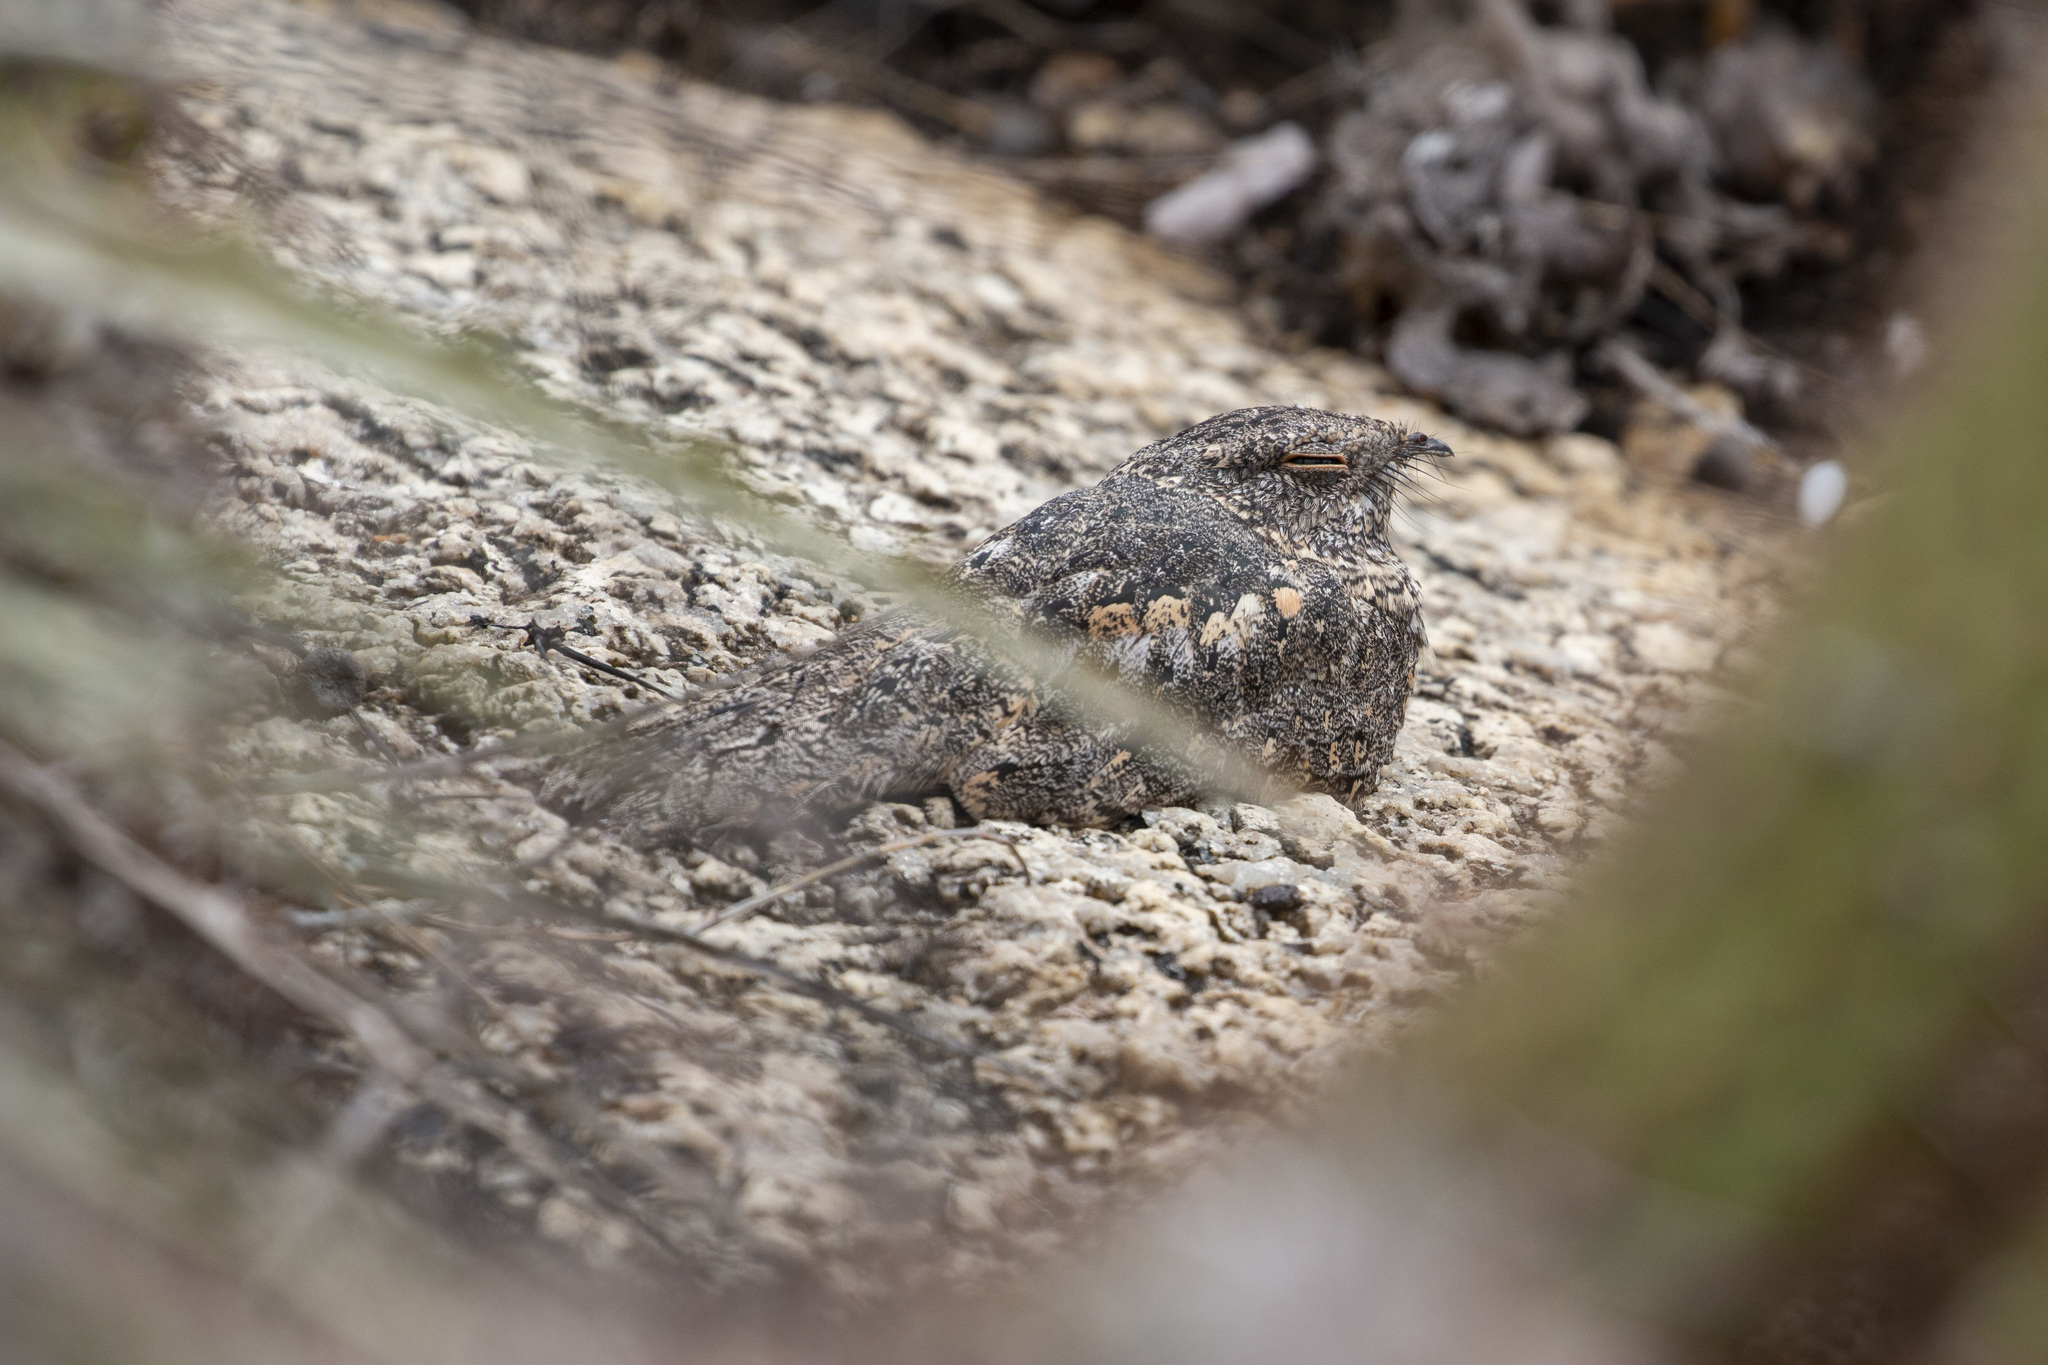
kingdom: Animalia
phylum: Chordata
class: Aves
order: Caprimulgiformes
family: Caprimulgidae
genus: Nyctipolus
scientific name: Nyctipolus hirundinaceus
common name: Pygmy nightjar
